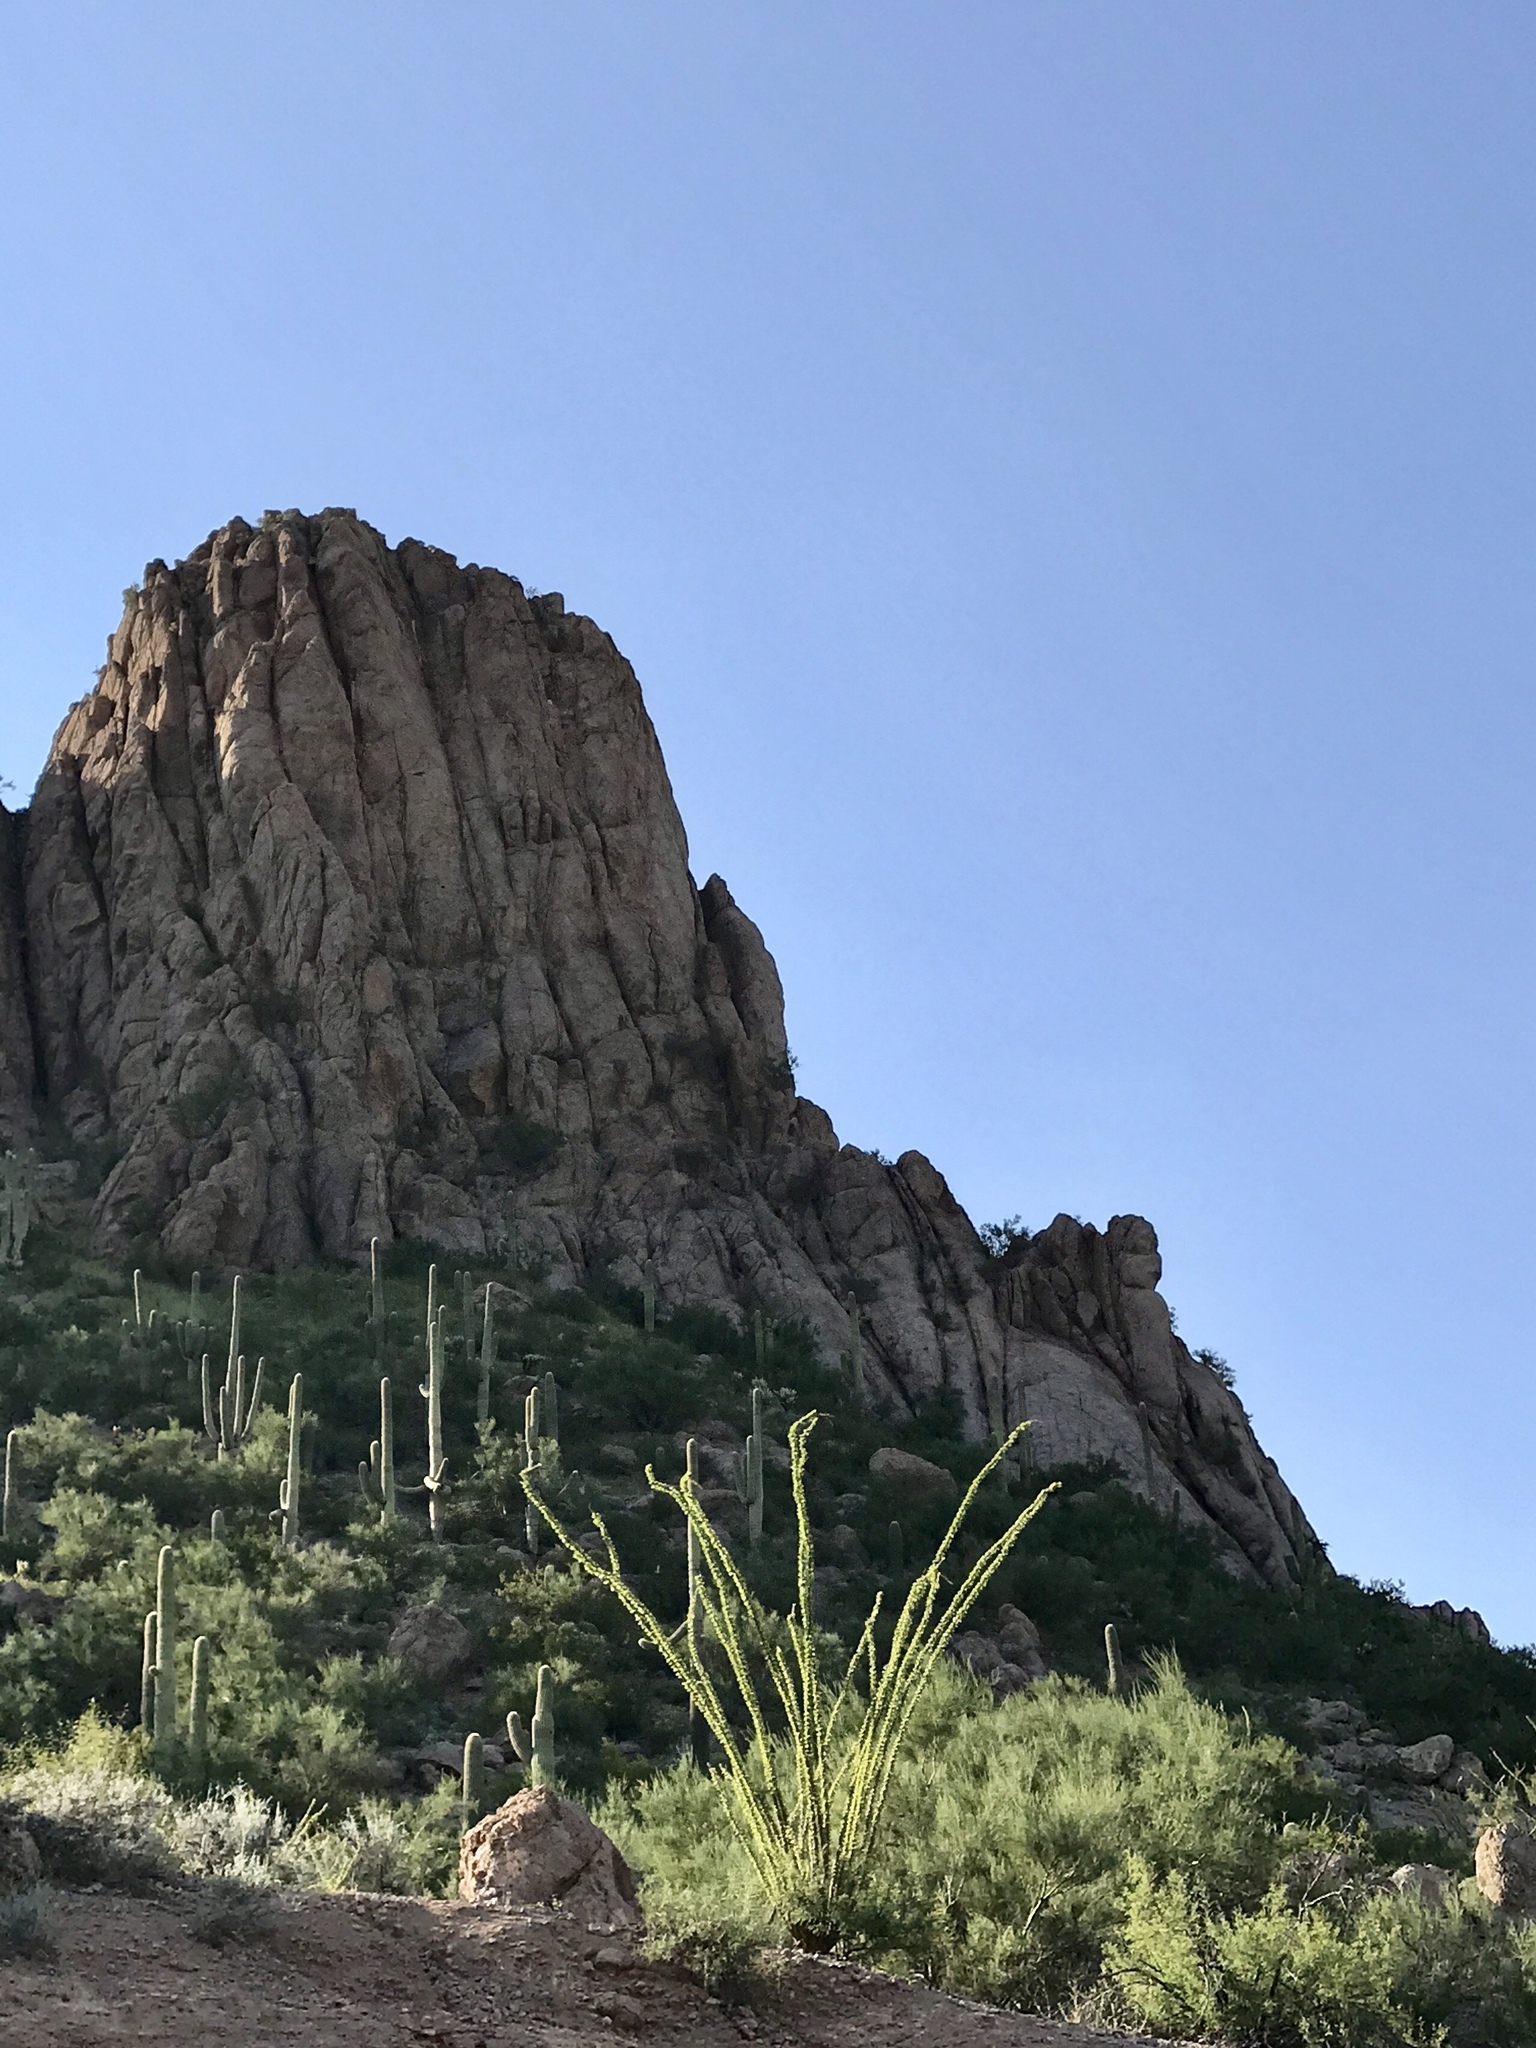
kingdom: Plantae
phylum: Tracheophyta
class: Magnoliopsida
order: Ericales
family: Fouquieriaceae
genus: Fouquieria
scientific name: Fouquieria splendens
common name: Vine-cactus
